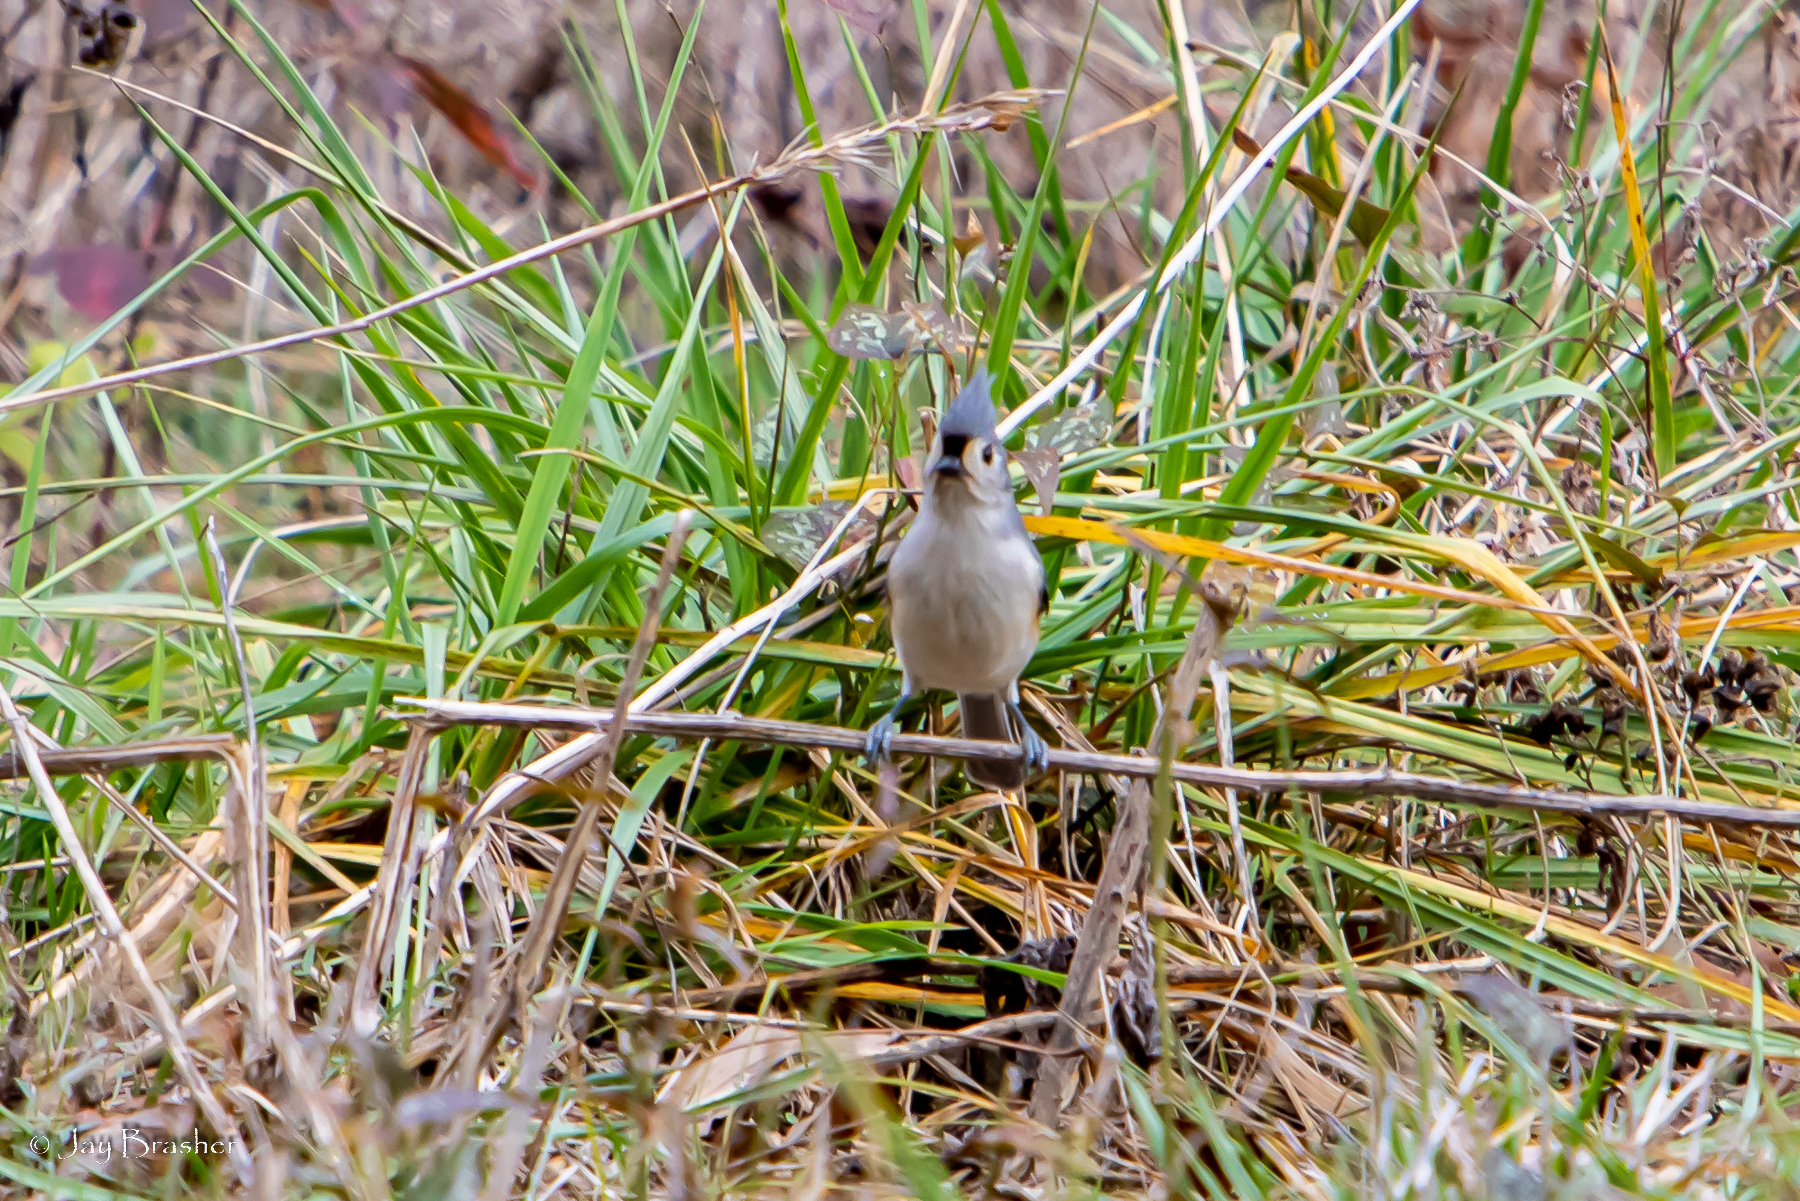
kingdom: Animalia
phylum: Chordata
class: Aves
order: Passeriformes
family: Paridae
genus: Baeolophus
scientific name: Baeolophus bicolor
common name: Tufted titmouse
